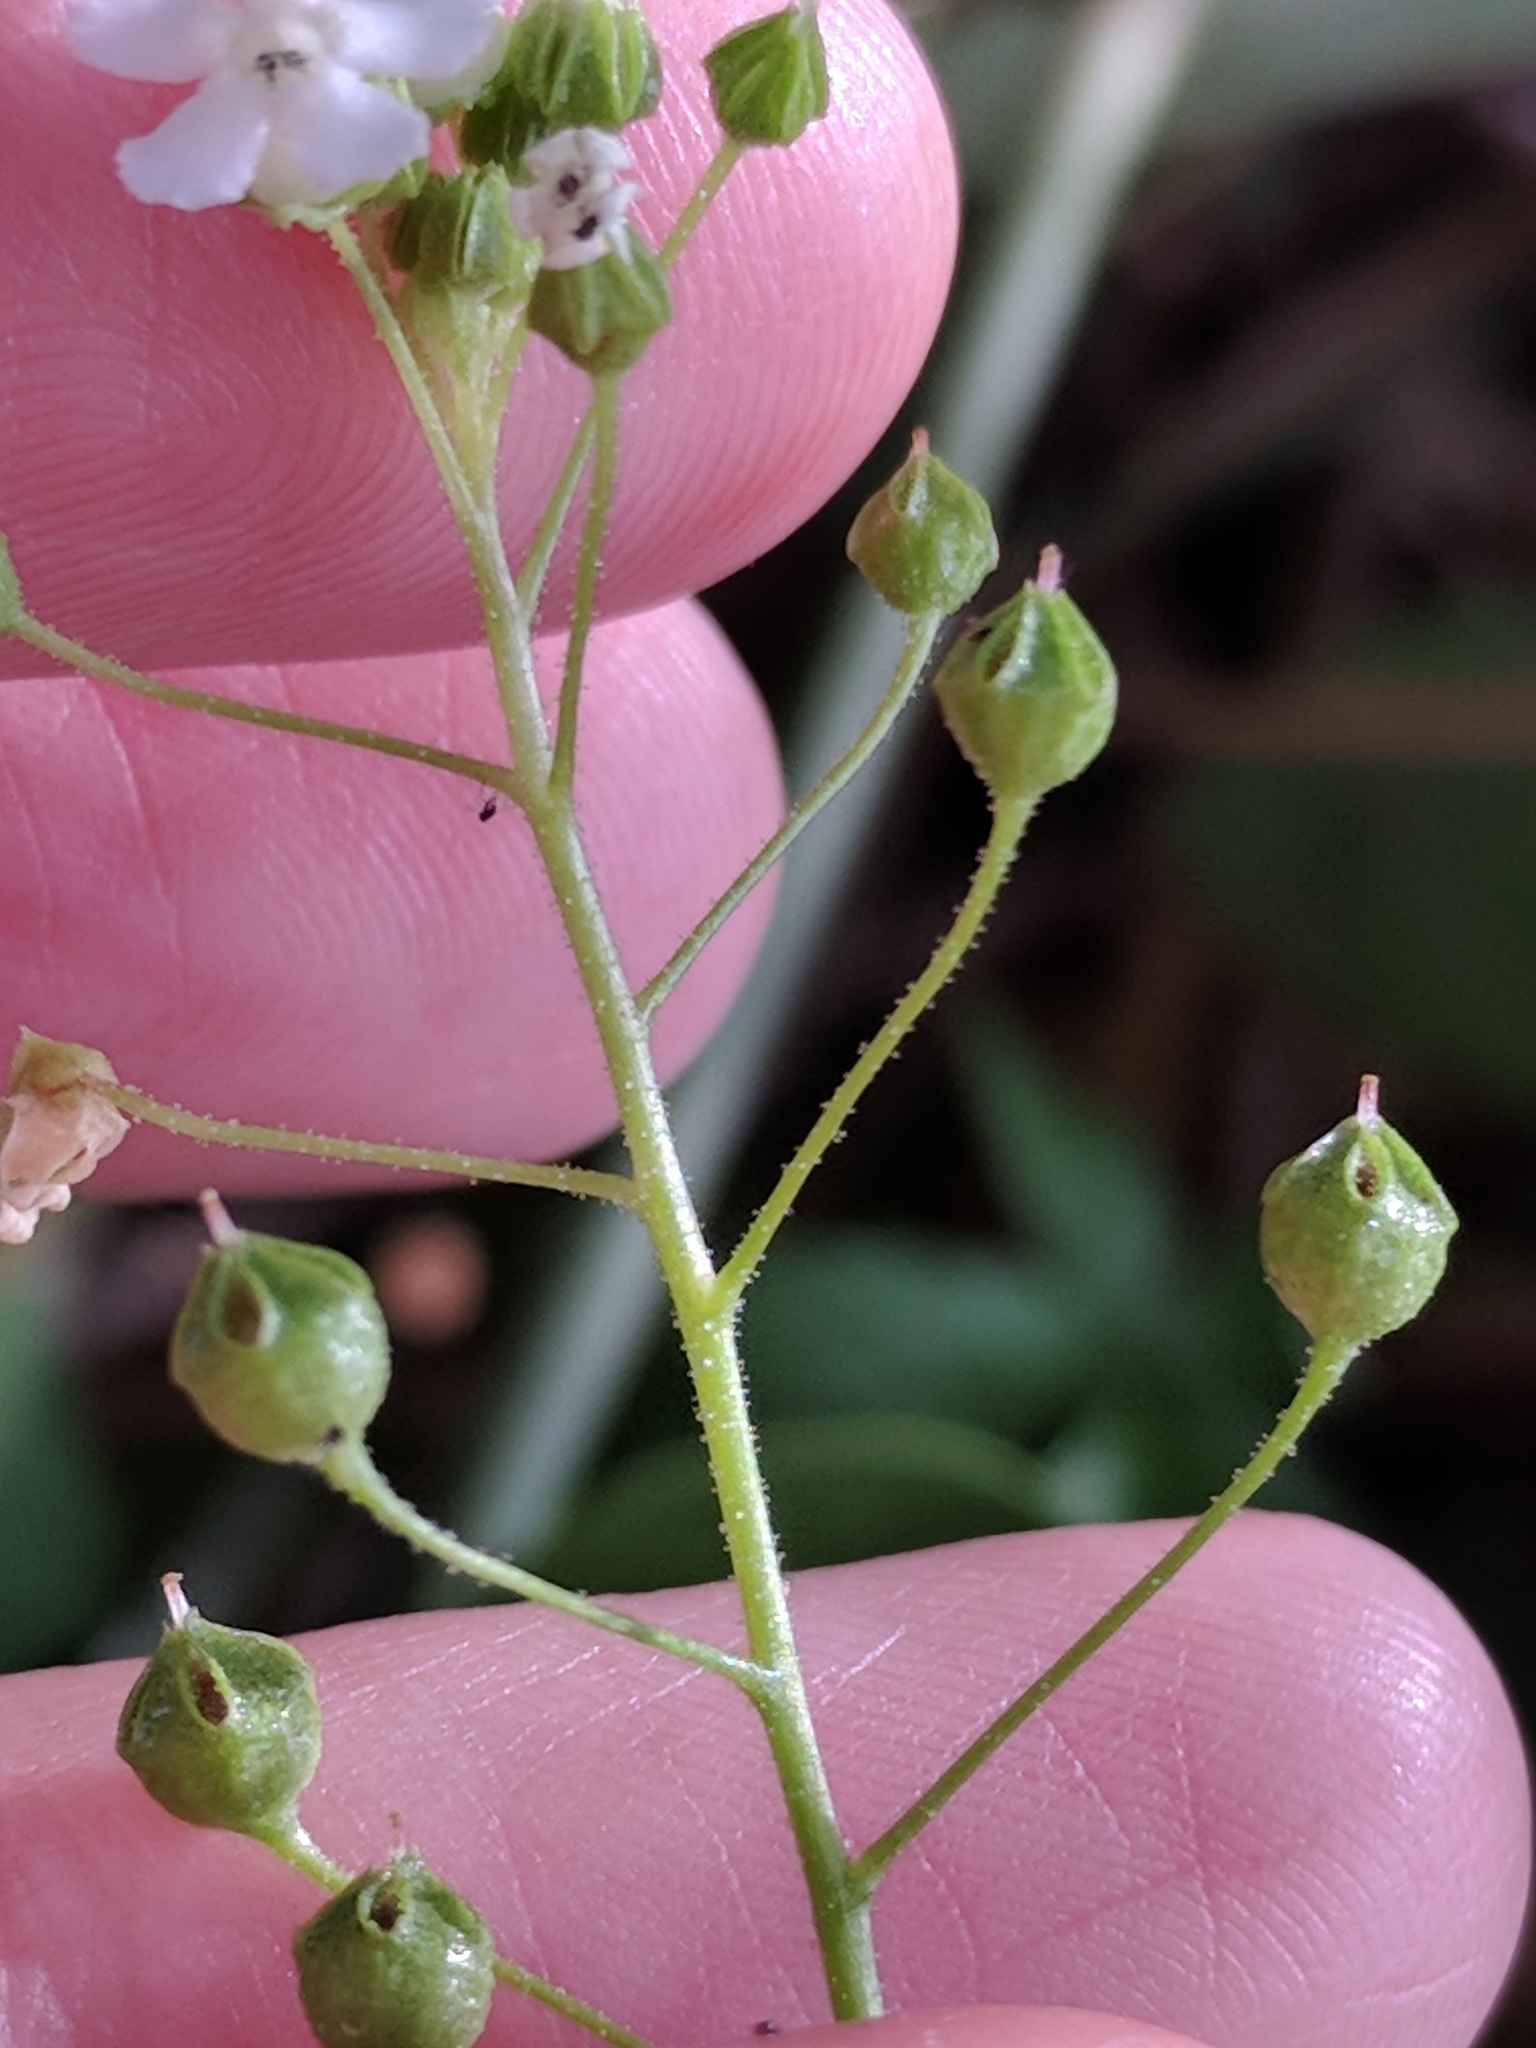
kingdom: Plantae
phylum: Tracheophyta
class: Magnoliopsida
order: Ericales
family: Primulaceae
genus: Samolus
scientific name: Samolus ebracteatus
